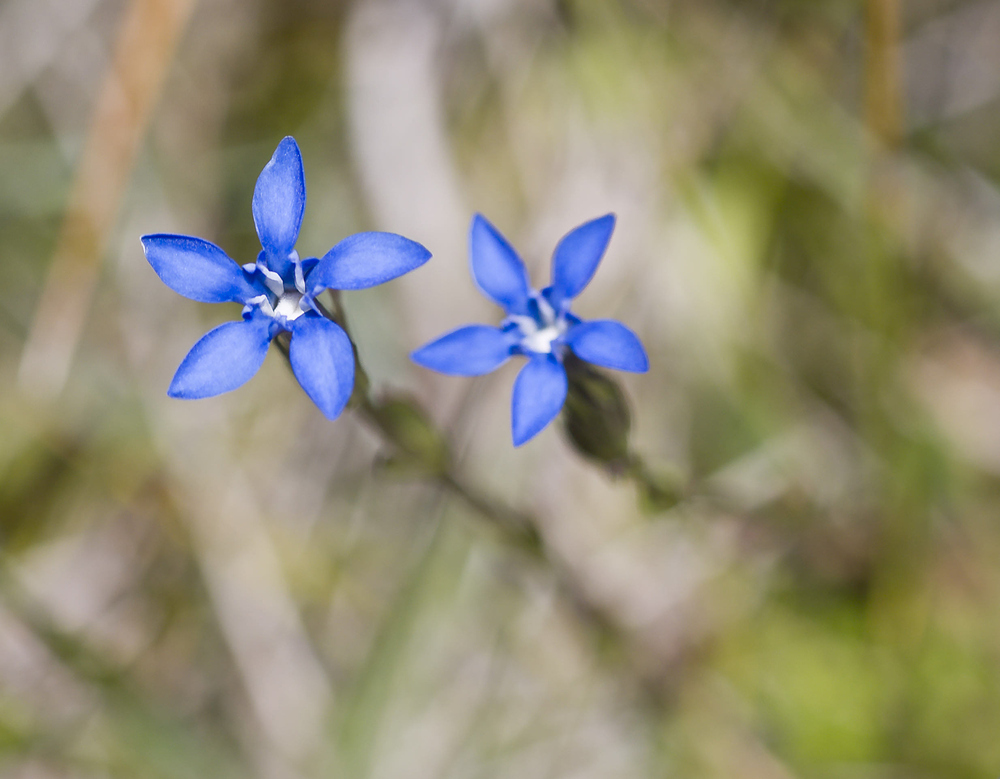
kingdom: Plantae
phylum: Tracheophyta
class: Magnoliopsida
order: Gentianales
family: Gentianaceae
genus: Gentiana
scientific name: Gentiana nivalis
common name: Alpine gentian
